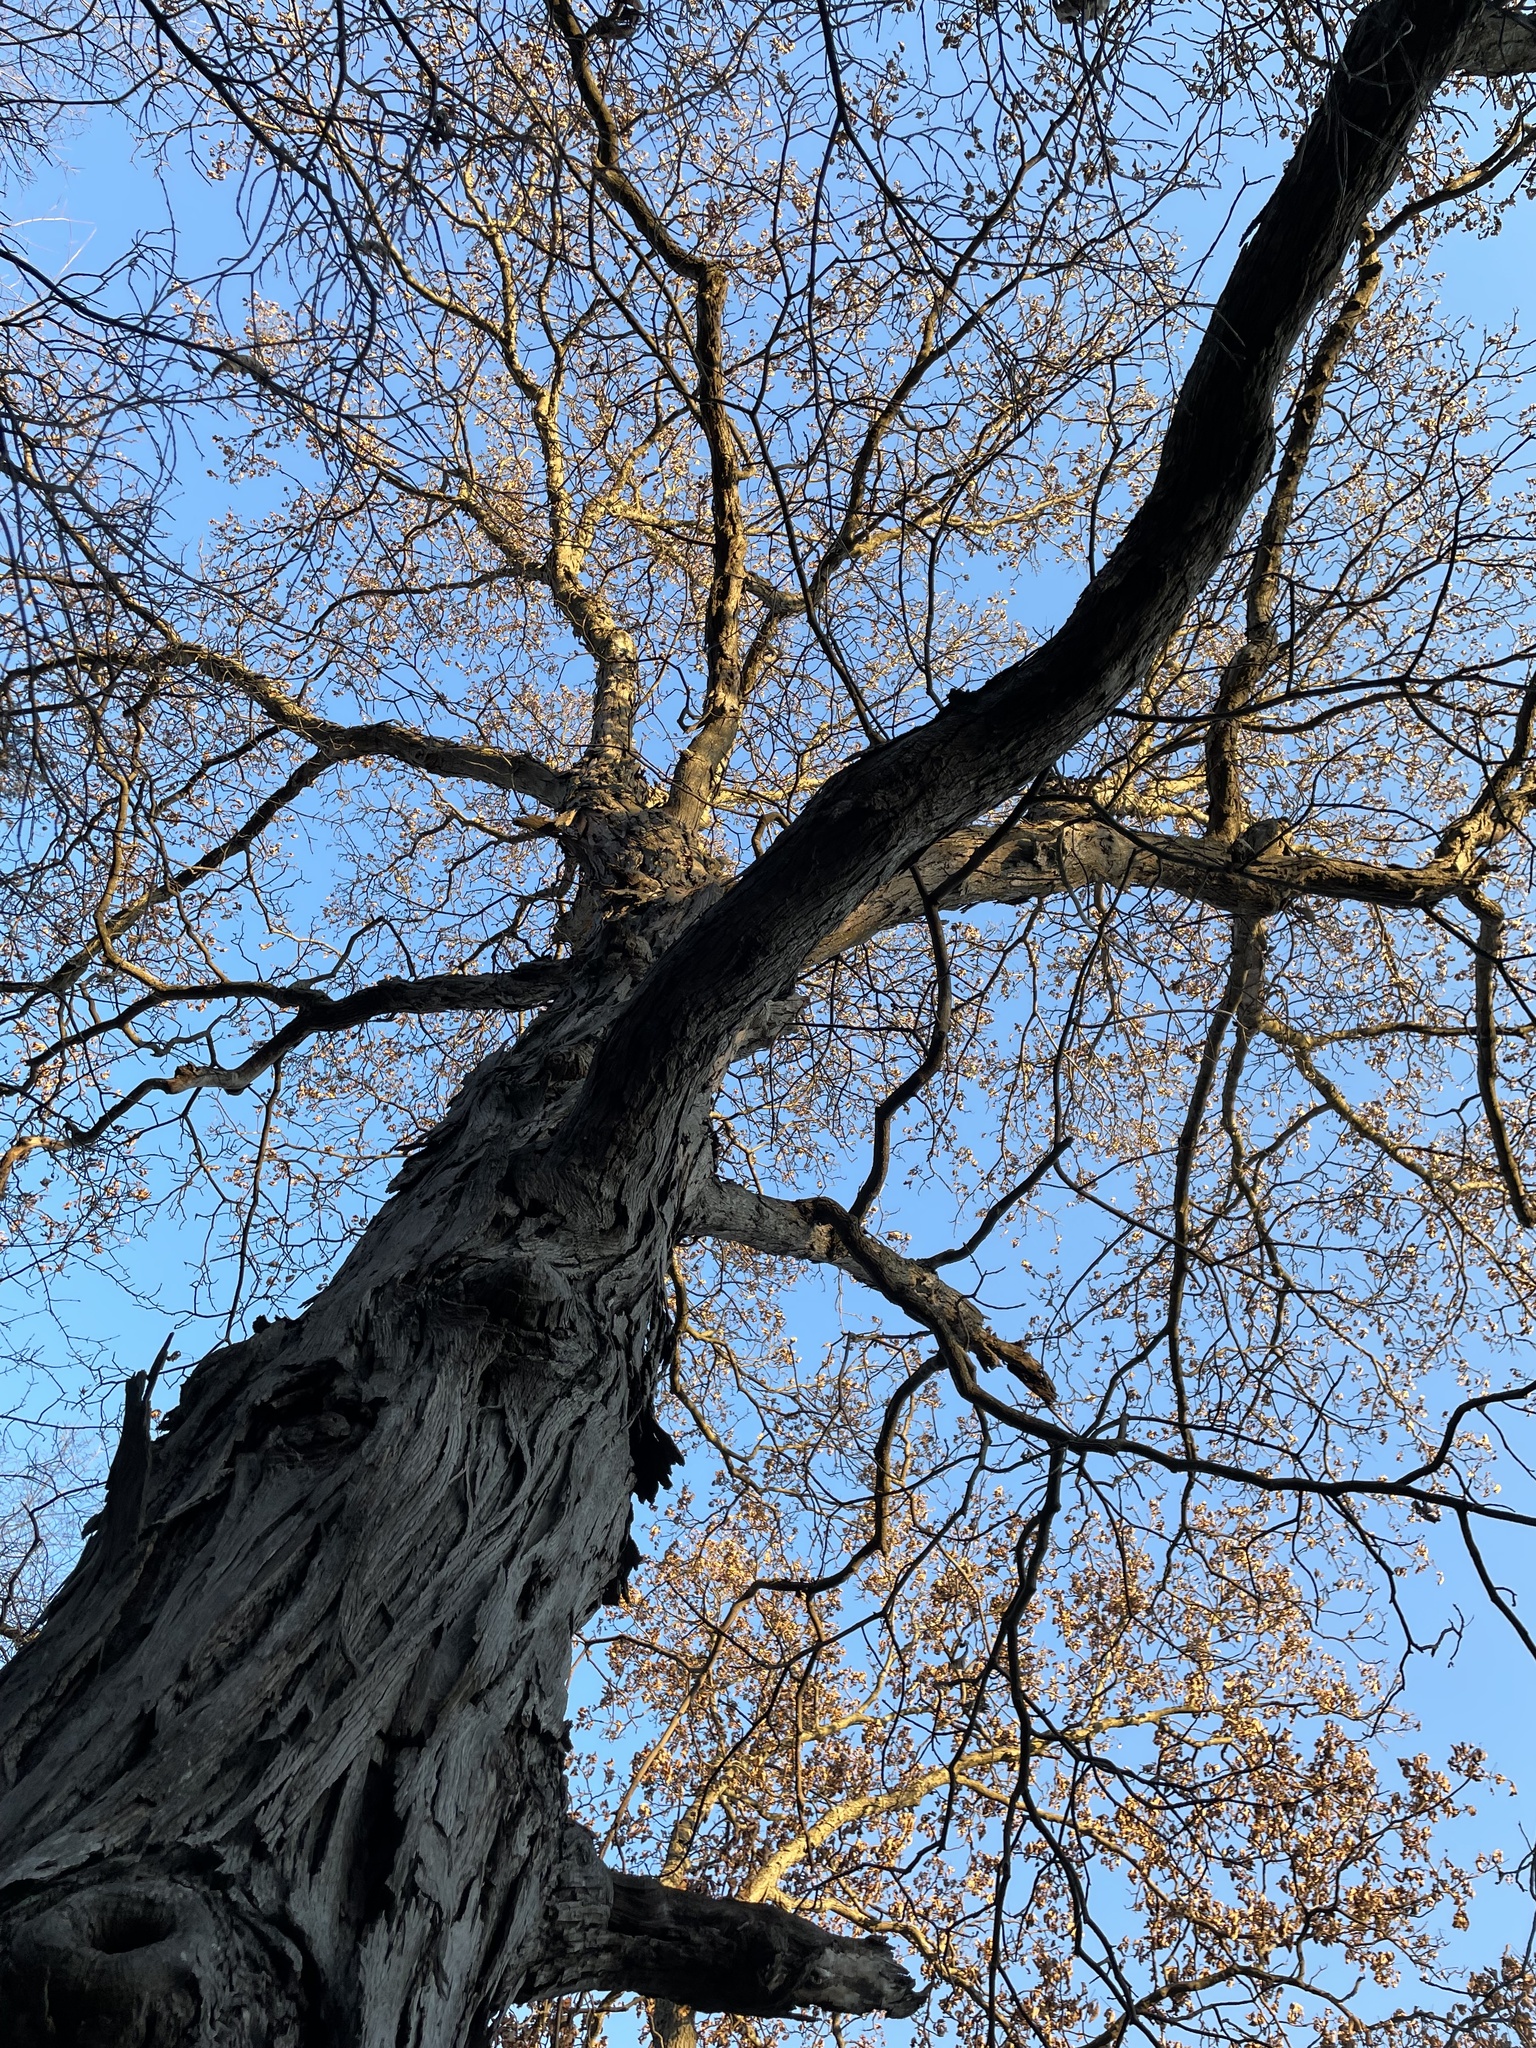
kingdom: Plantae
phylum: Tracheophyta
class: Magnoliopsida
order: Fagales
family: Juglandaceae
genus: Carya
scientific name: Carya ovata
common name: Shagbark hickory
